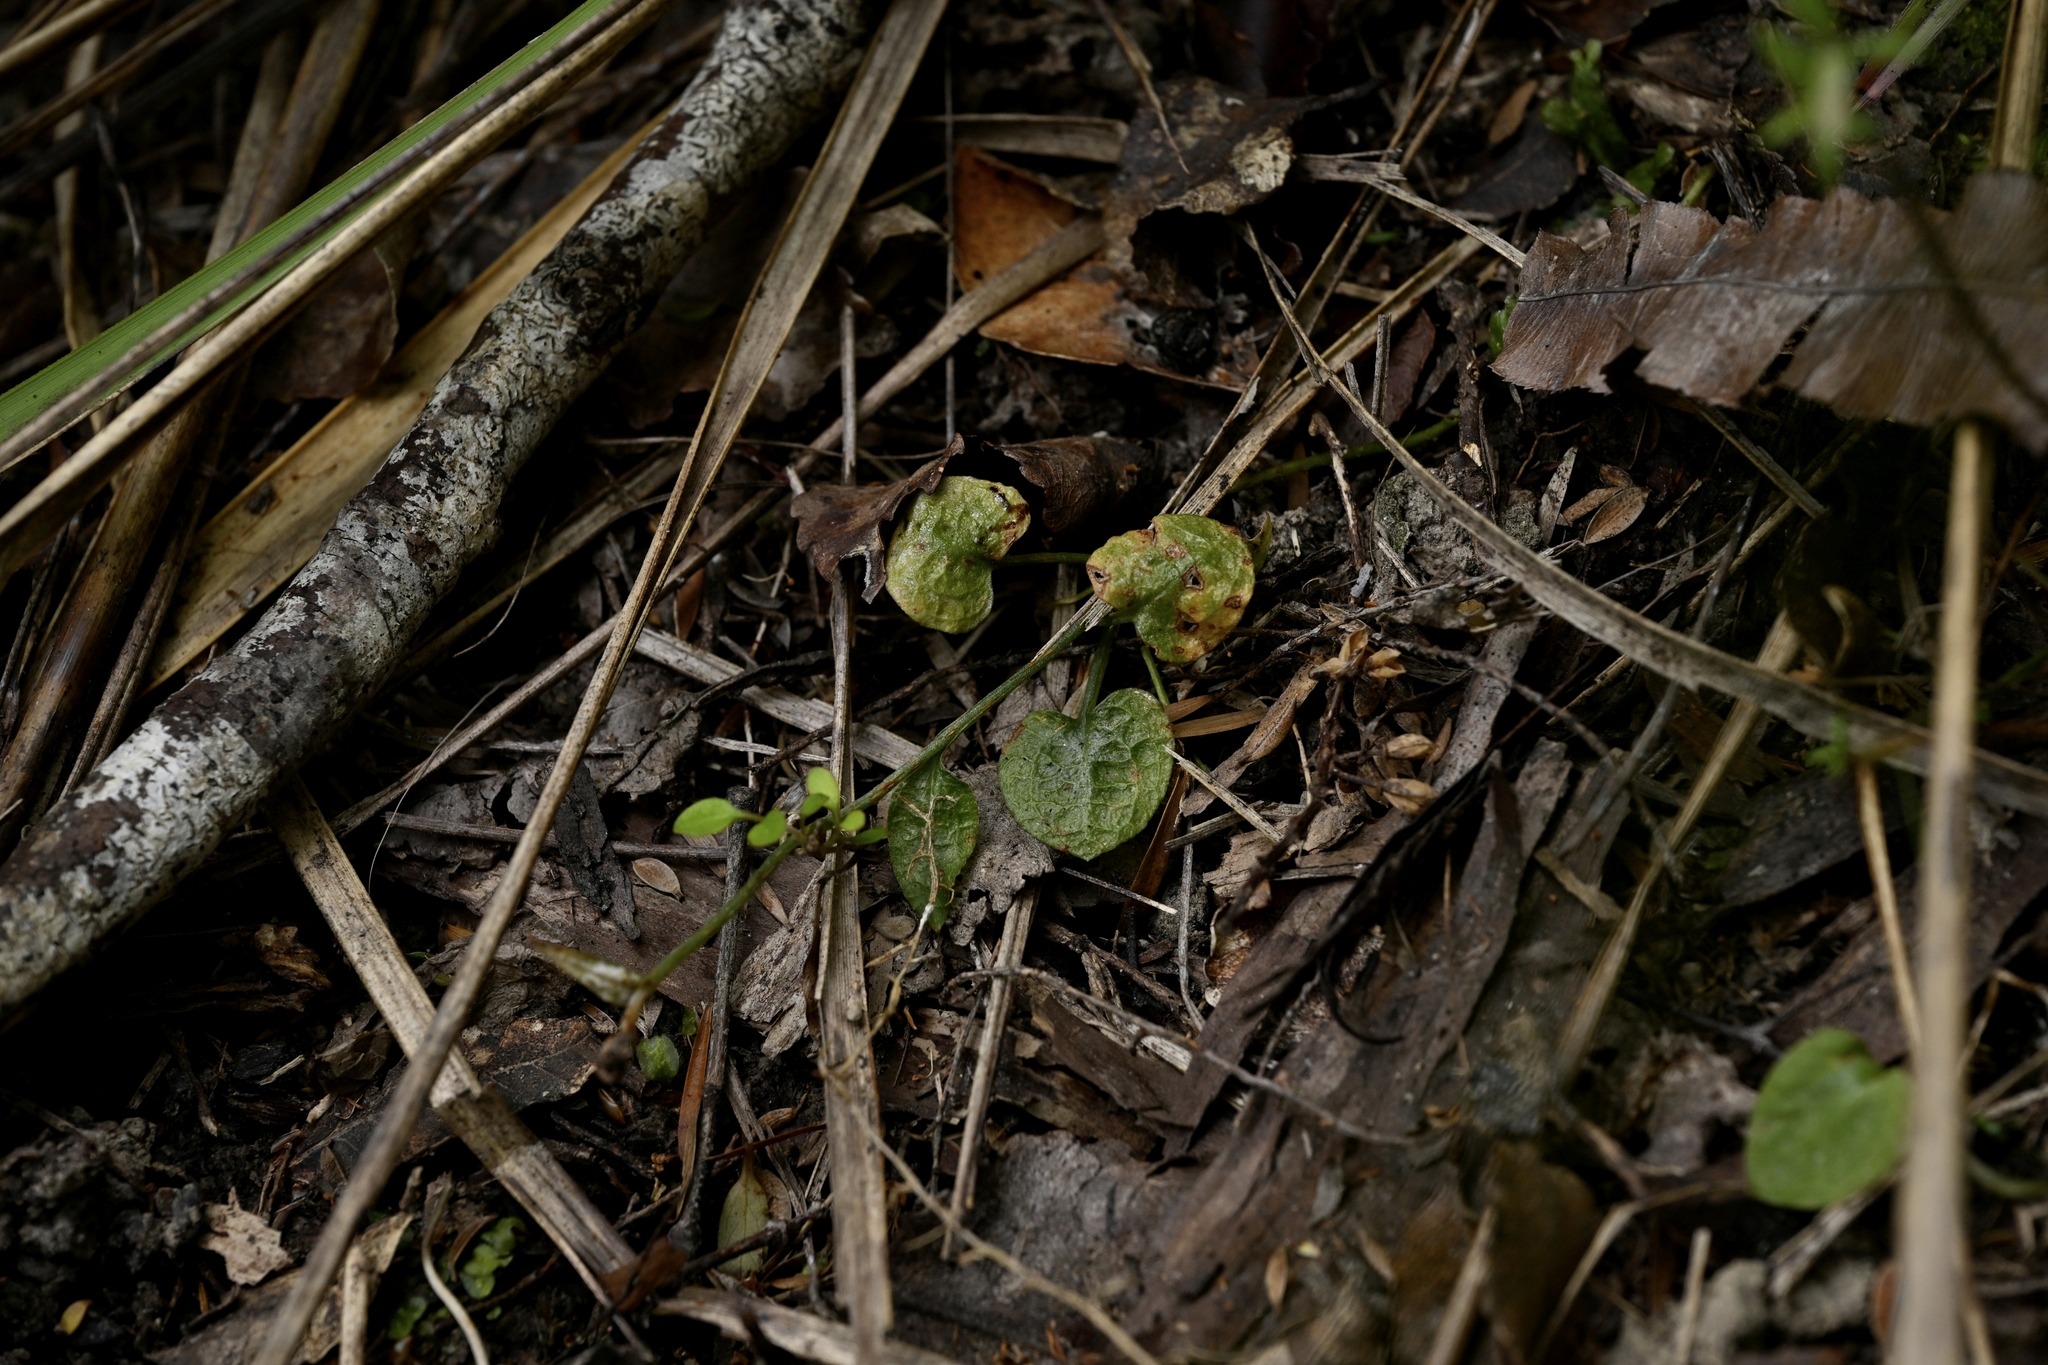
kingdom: Plantae
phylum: Tracheophyta
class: Liliopsida
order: Asparagales
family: Orchidaceae
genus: Pterostylis
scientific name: Pterostylis trullifolia
